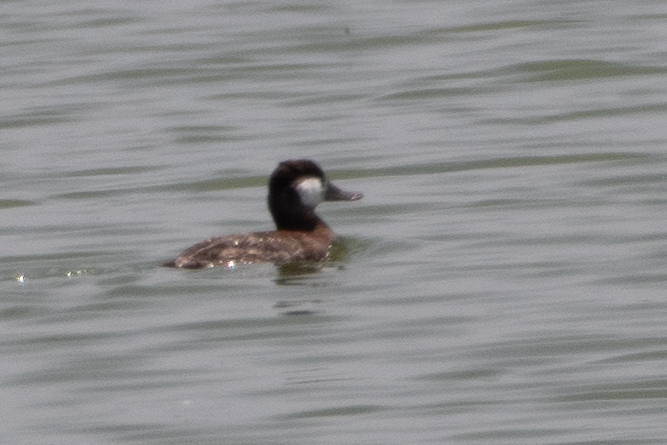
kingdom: Animalia
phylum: Chordata
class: Aves
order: Anseriformes
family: Anatidae
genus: Oxyura
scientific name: Oxyura jamaicensis
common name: Ruddy duck
